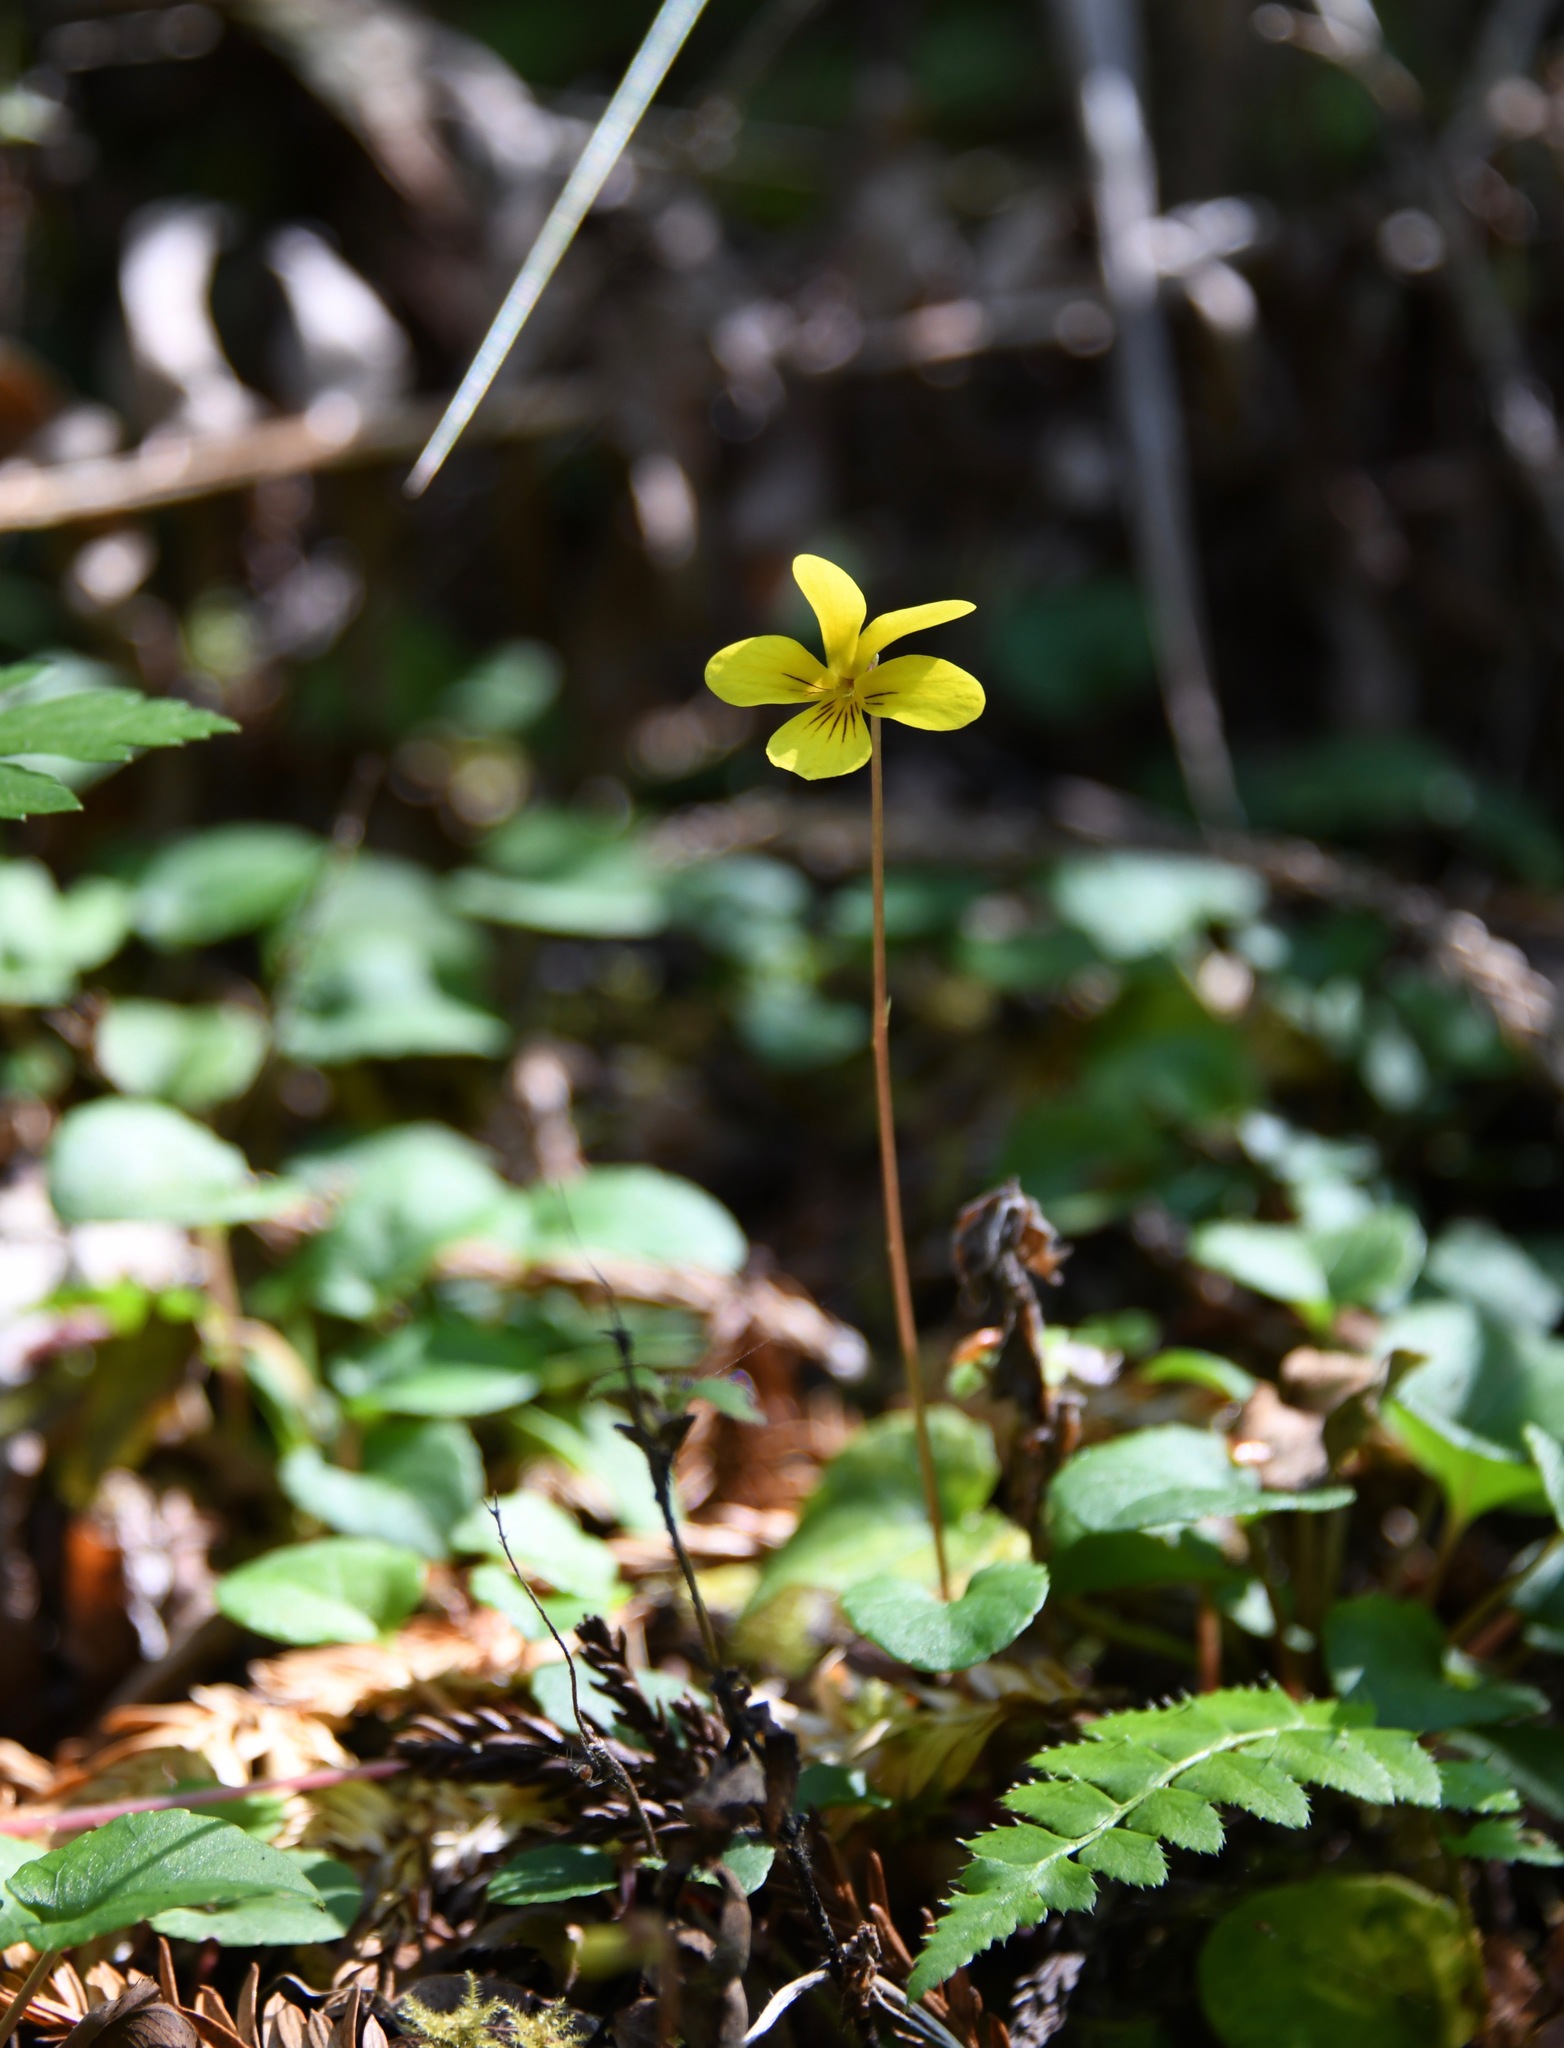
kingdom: Plantae
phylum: Tracheophyta
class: Magnoliopsida
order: Malpighiales
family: Violaceae
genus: Viola
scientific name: Viola sempervirens
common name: Evergreen violet
